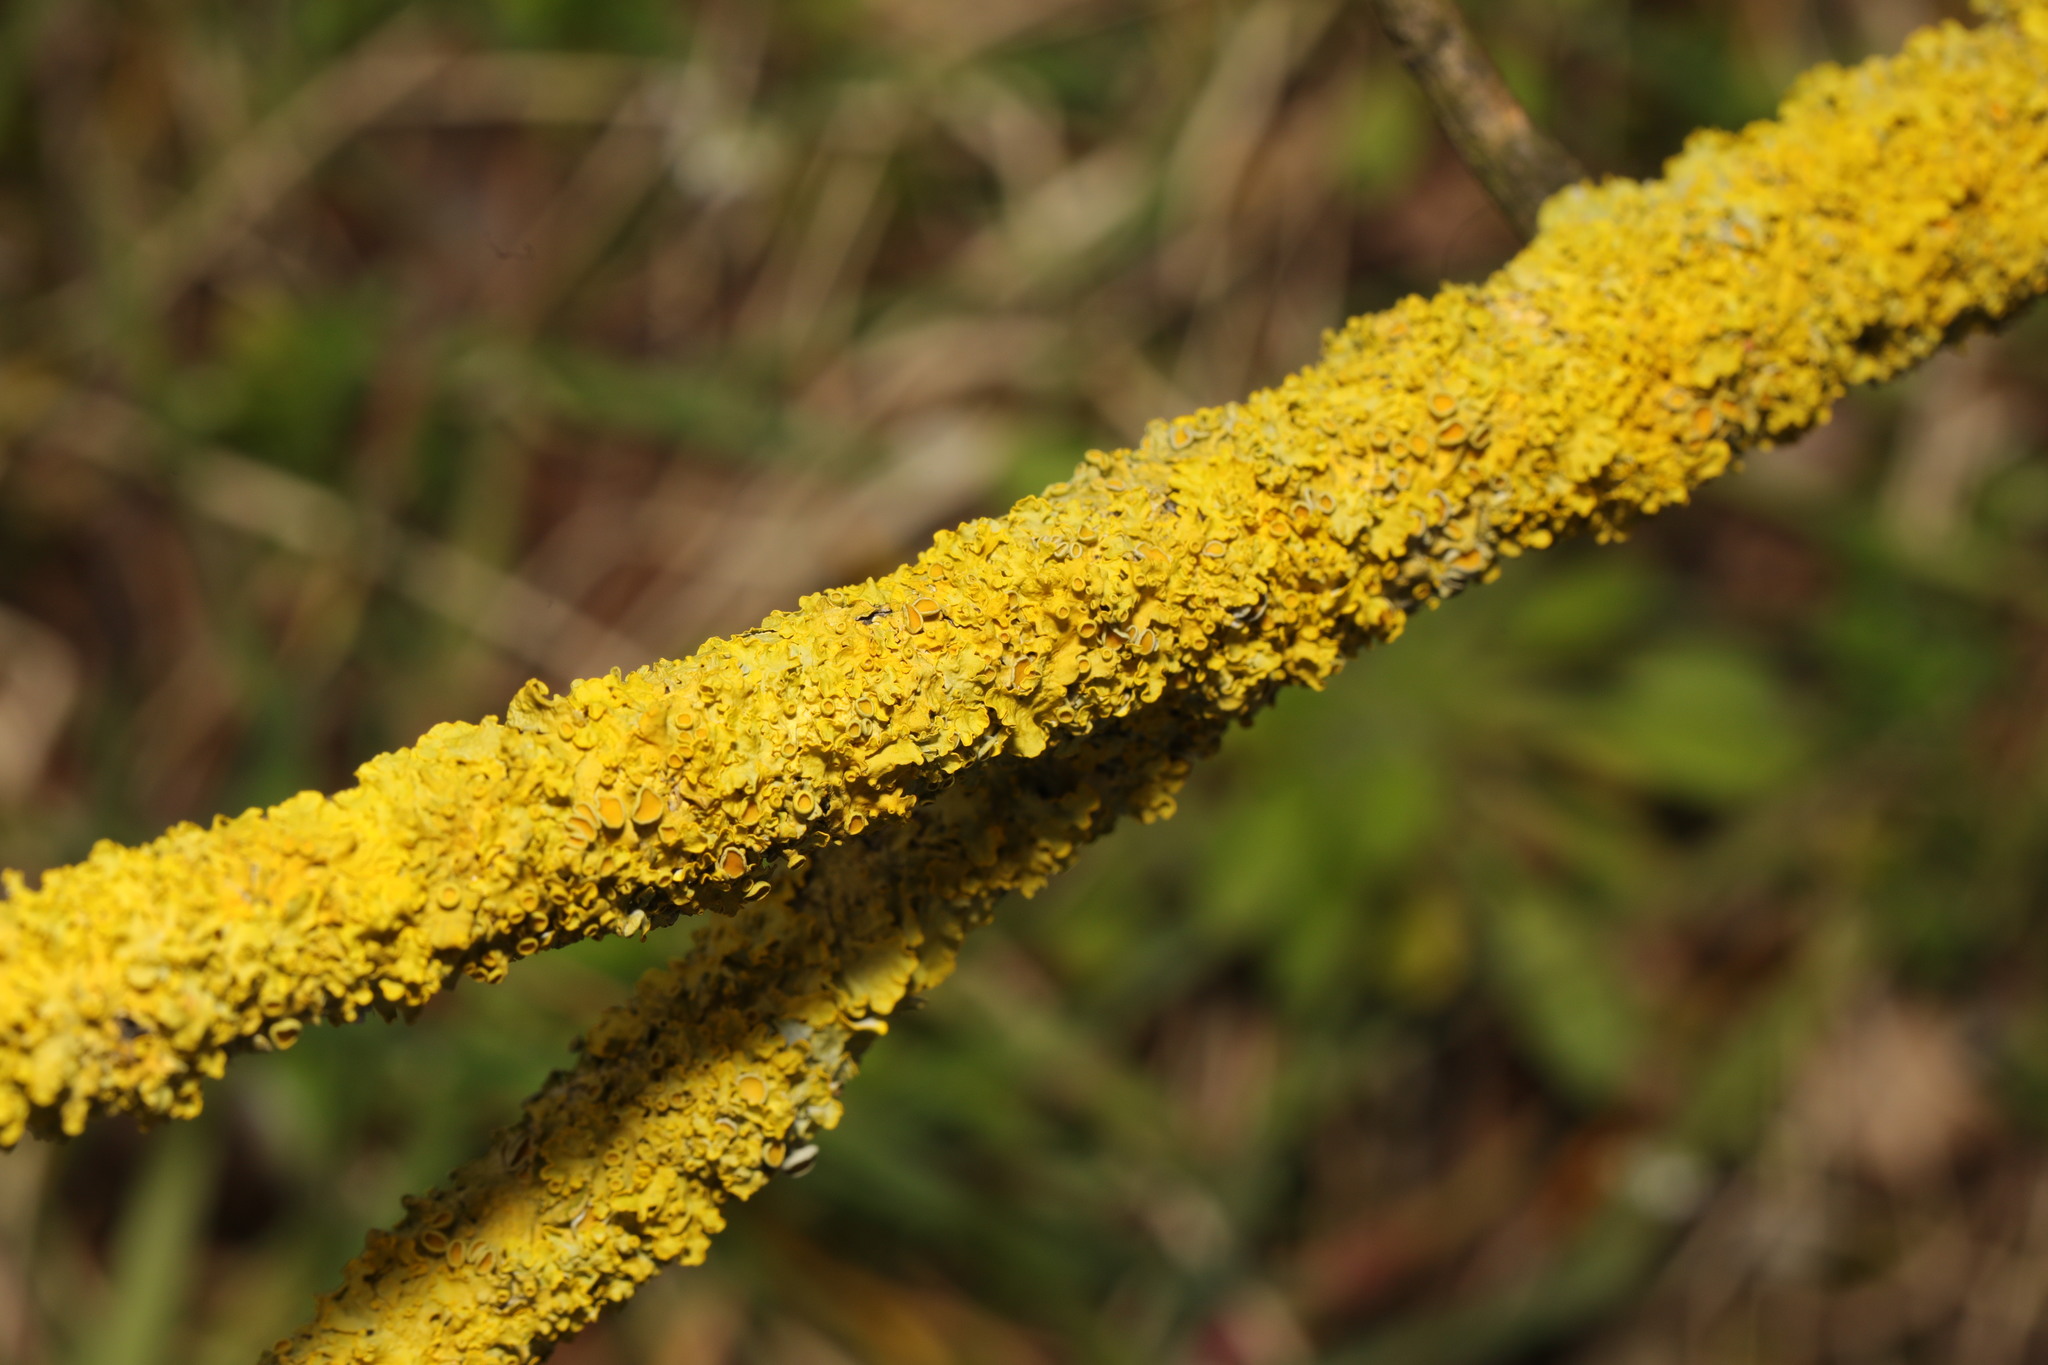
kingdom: Fungi
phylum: Ascomycota
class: Lecanoromycetes
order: Teloschistales
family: Teloschistaceae
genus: Xanthoria
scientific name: Xanthoria parietina
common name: Common orange lichen
